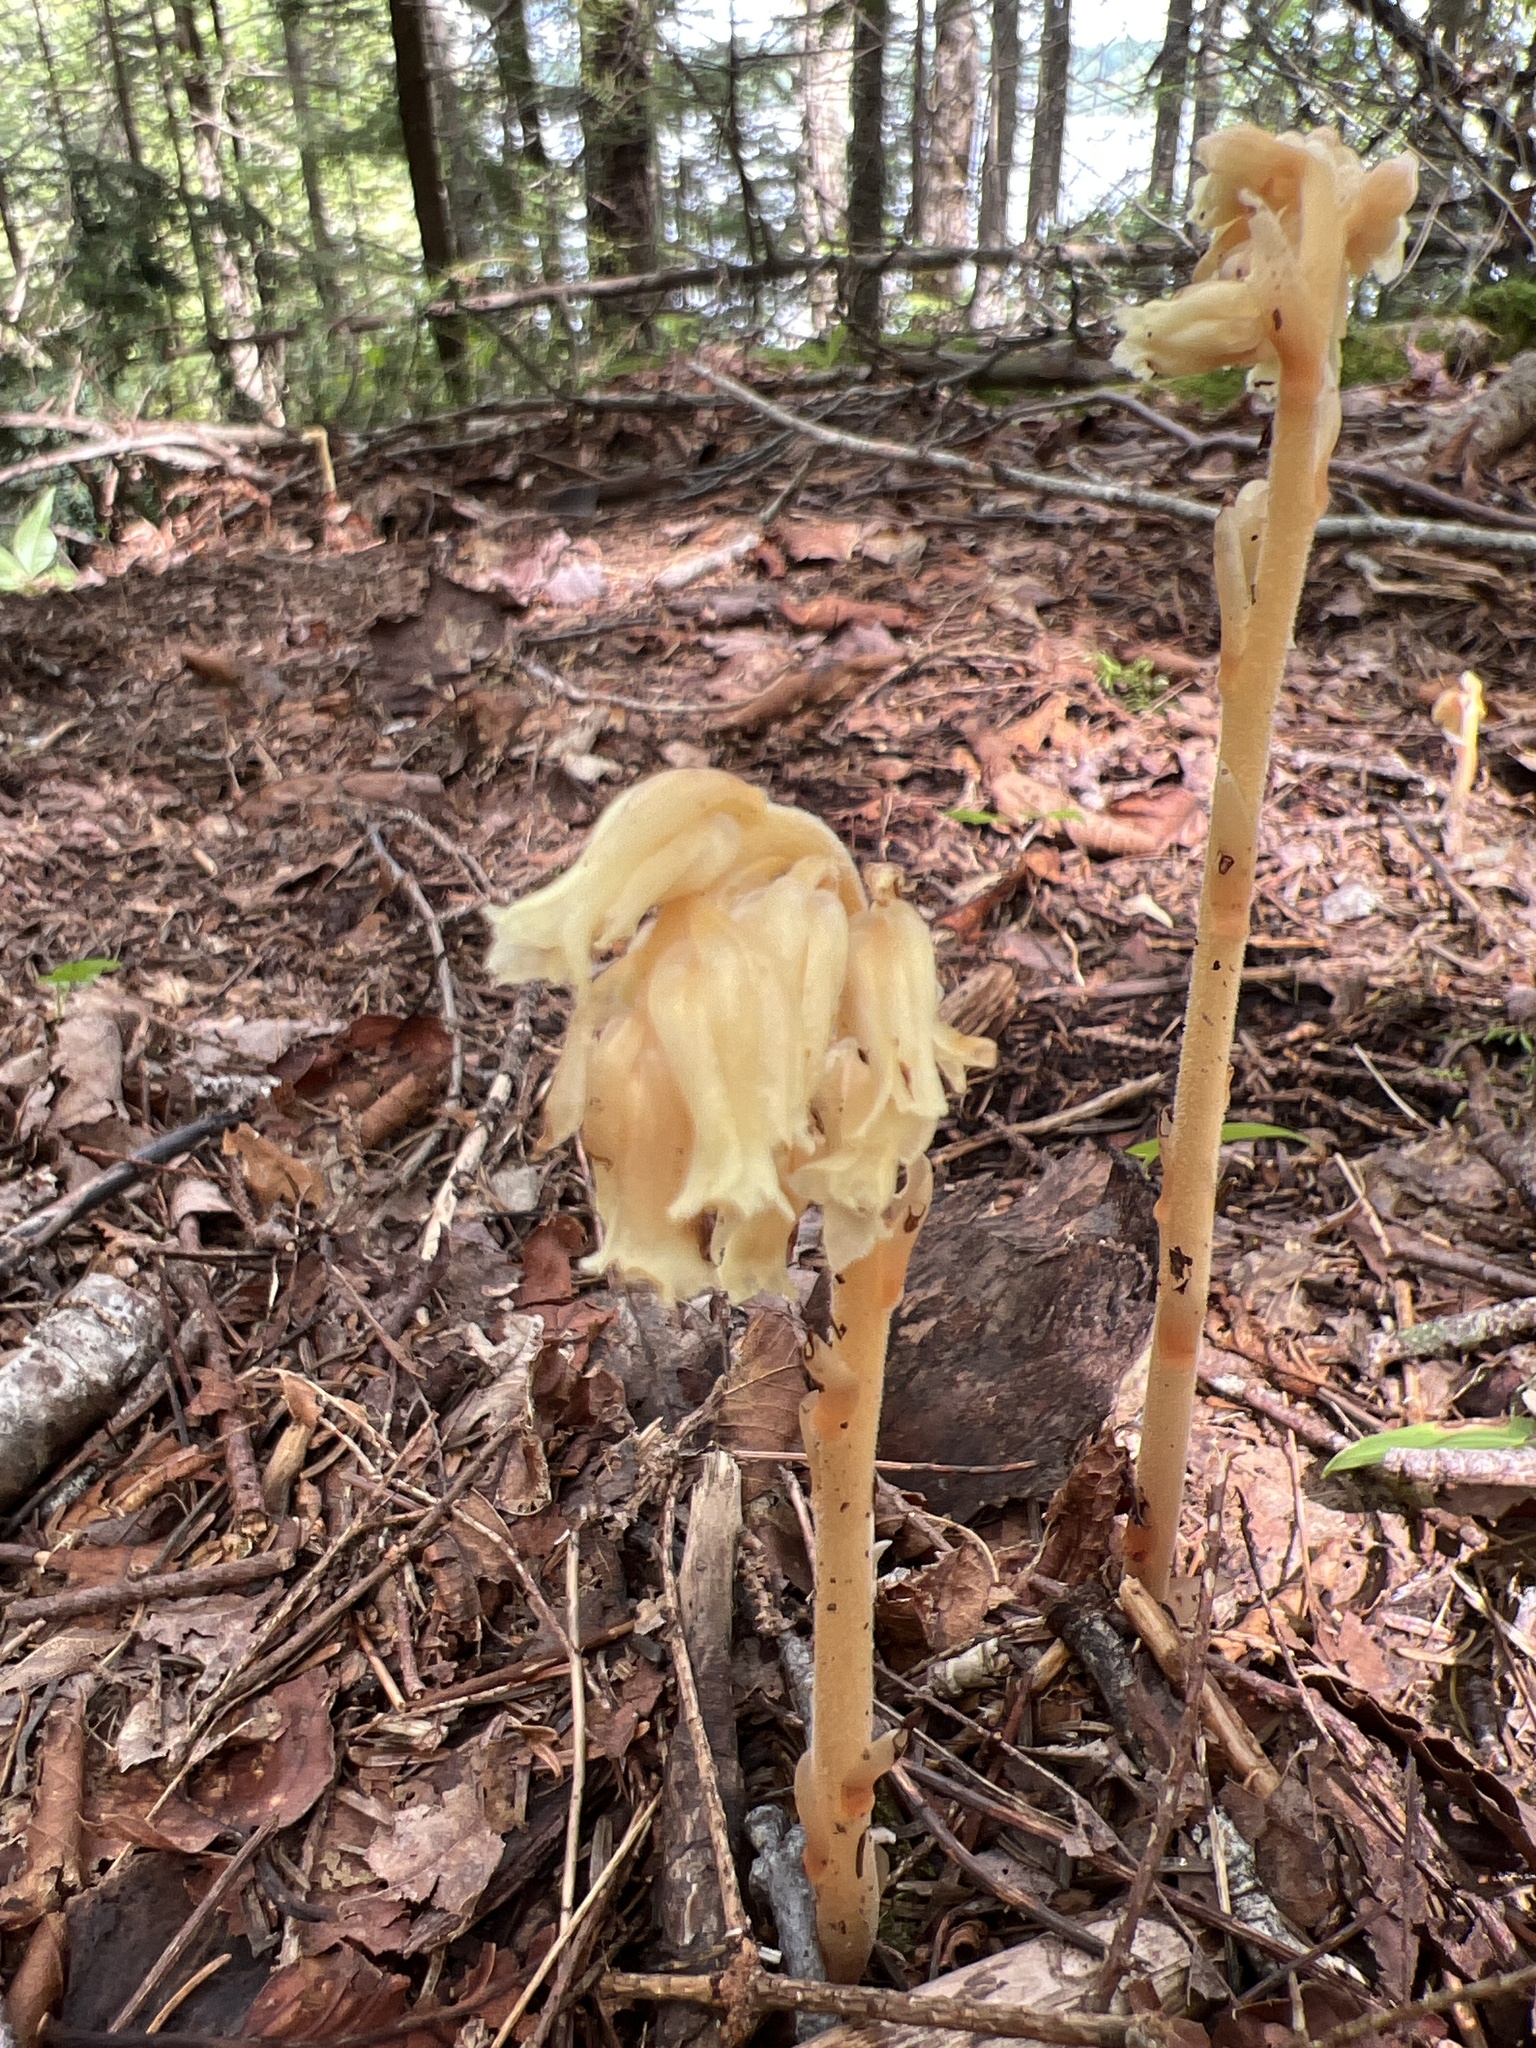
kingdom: Plantae
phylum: Tracheophyta
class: Magnoliopsida
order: Ericales
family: Ericaceae
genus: Hypopitys
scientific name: Hypopitys monotropa
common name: Yellow bird's-nest
